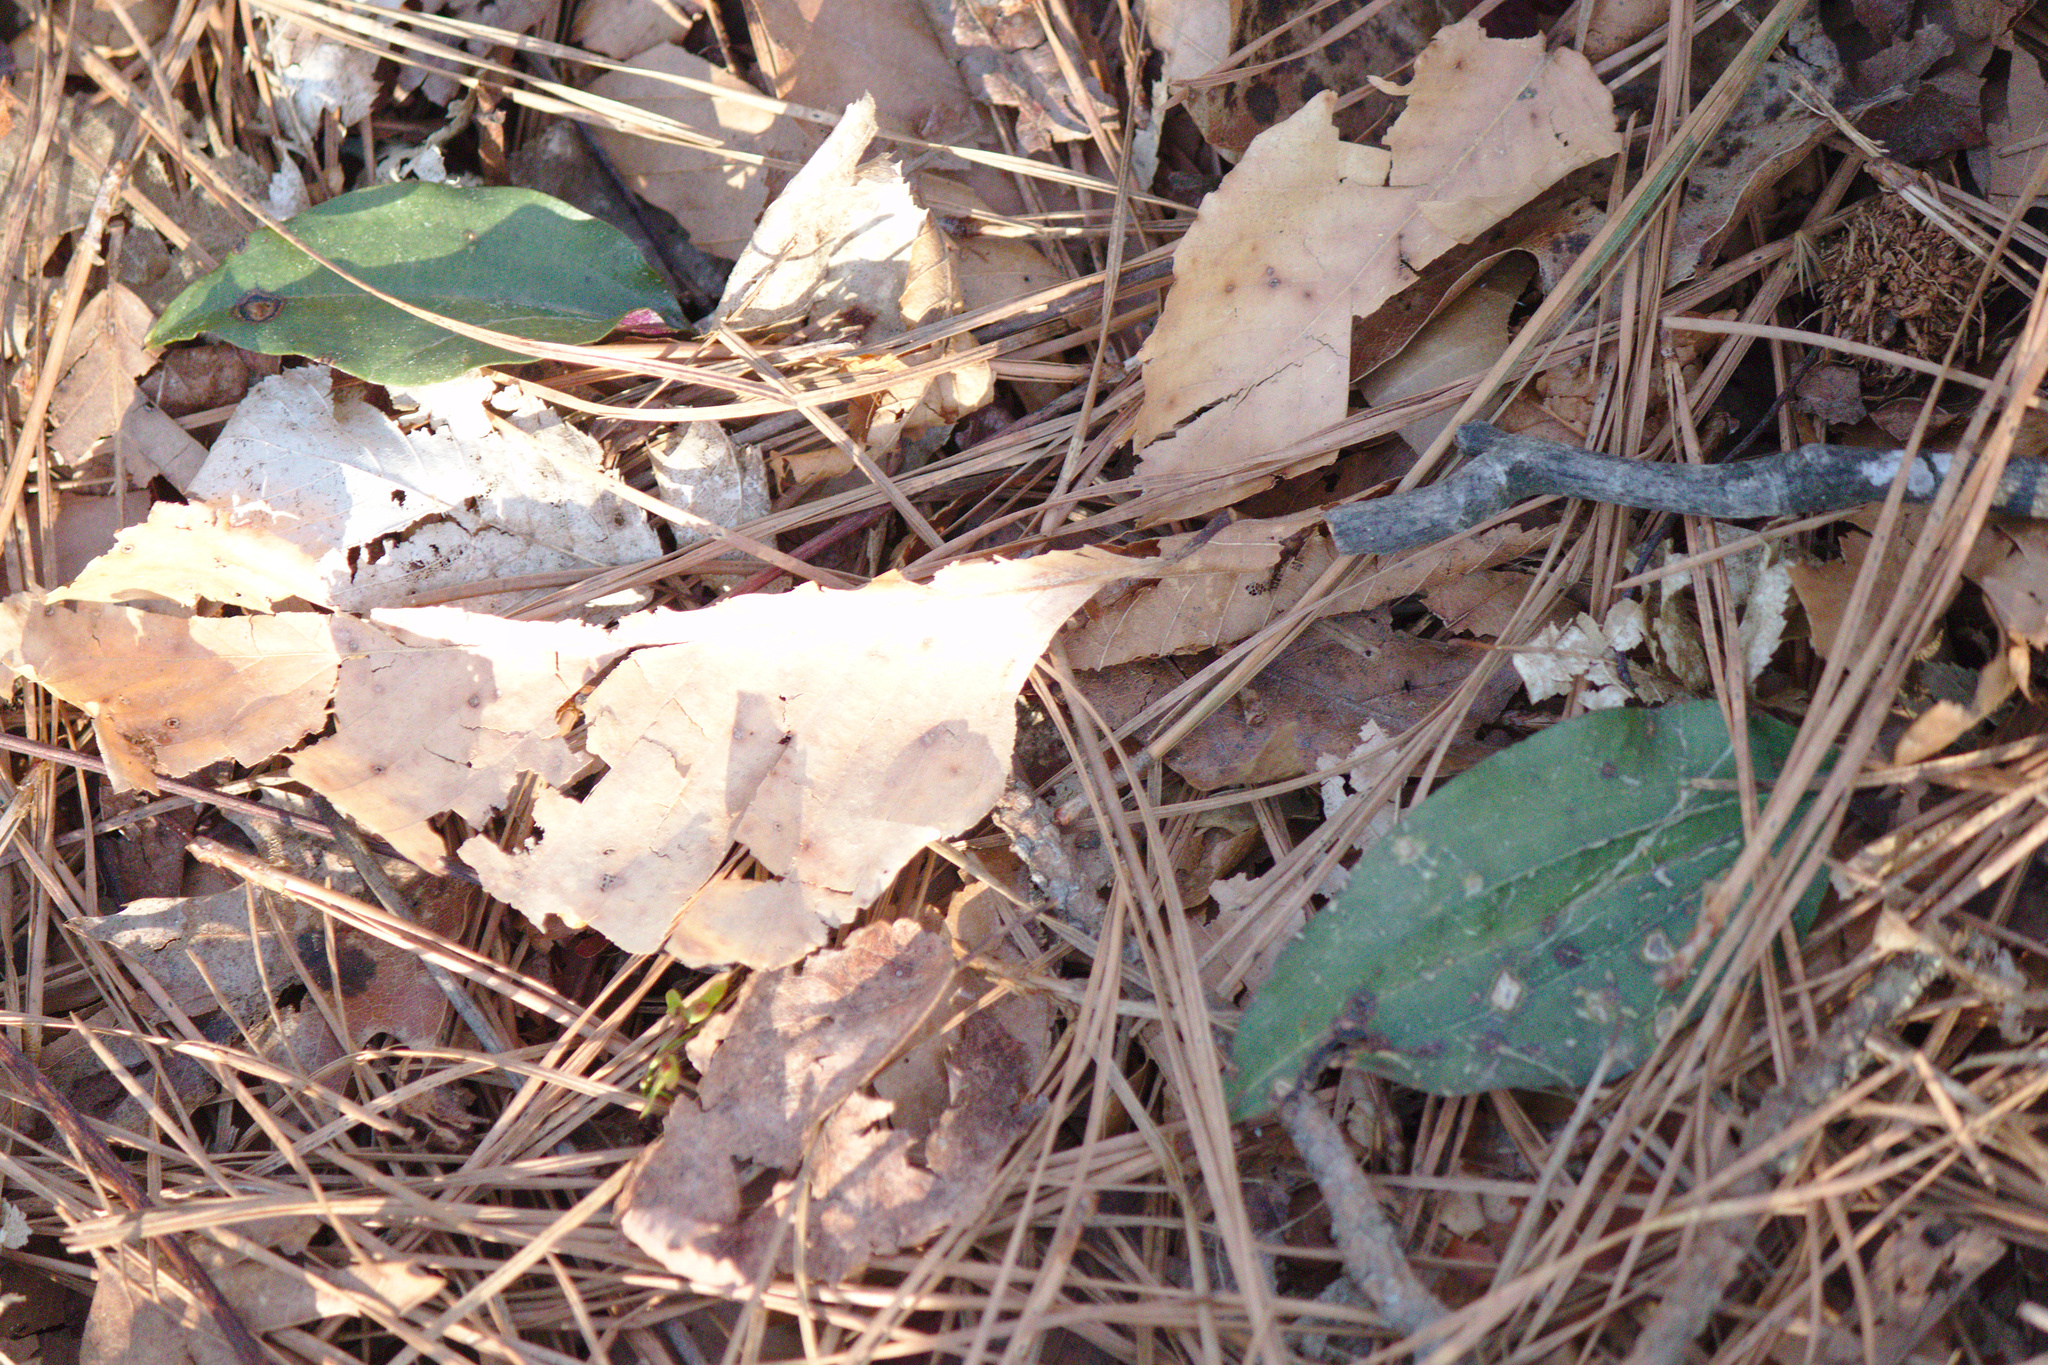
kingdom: Plantae
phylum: Tracheophyta
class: Liliopsida
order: Asparagales
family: Orchidaceae
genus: Tipularia
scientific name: Tipularia discolor
